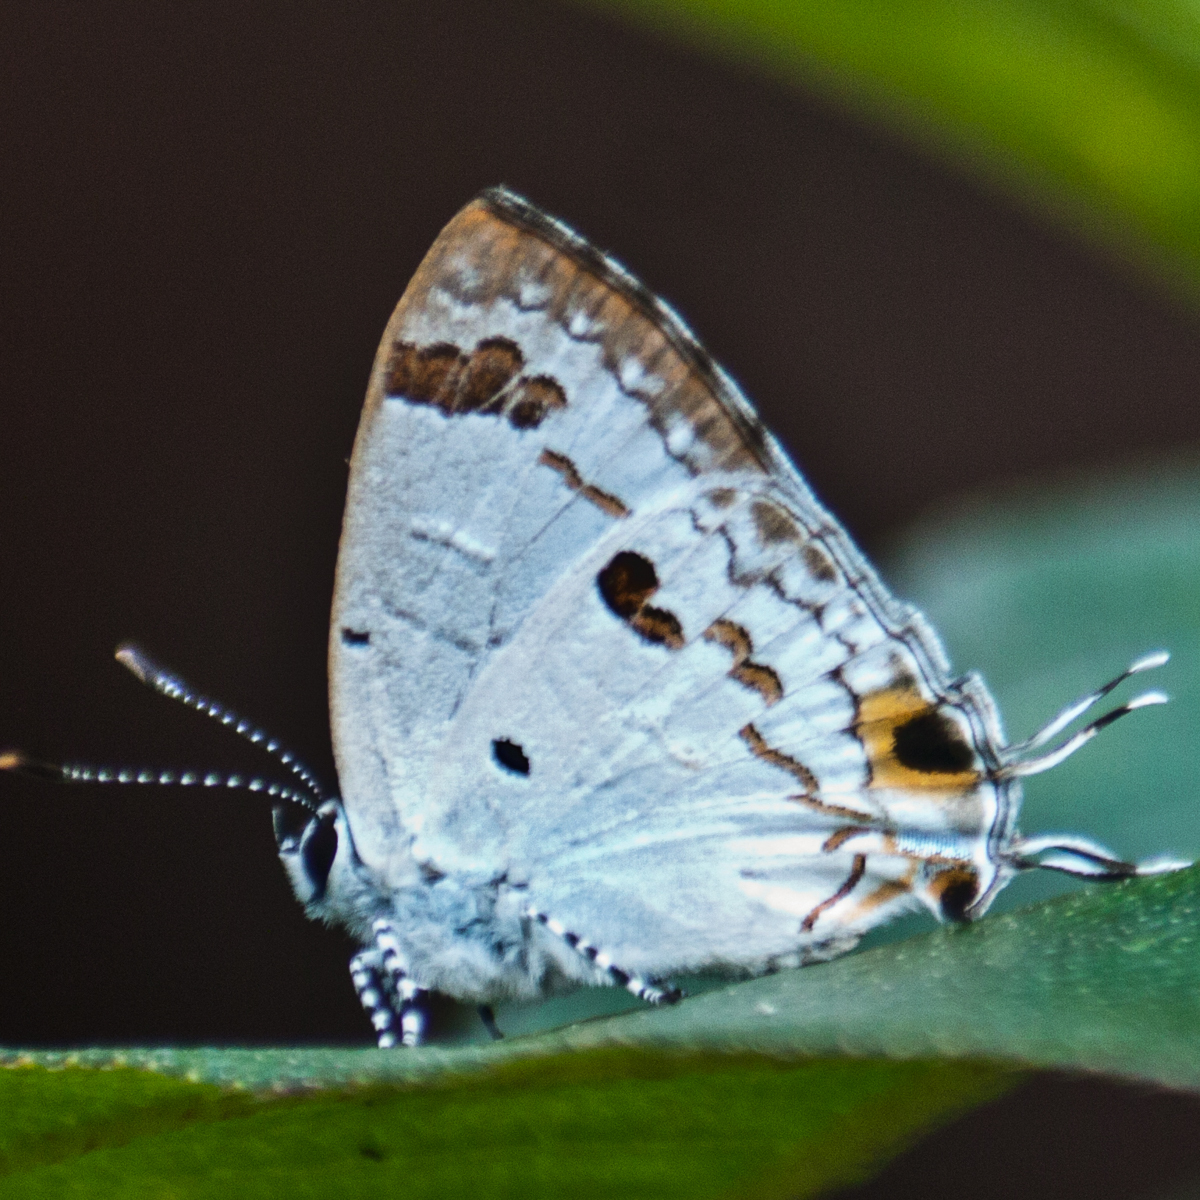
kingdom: Animalia
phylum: Arthropoda
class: Insecta
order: Lepidoptera
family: Lycaenidae
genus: Chliaria
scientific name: Chliaria othona
